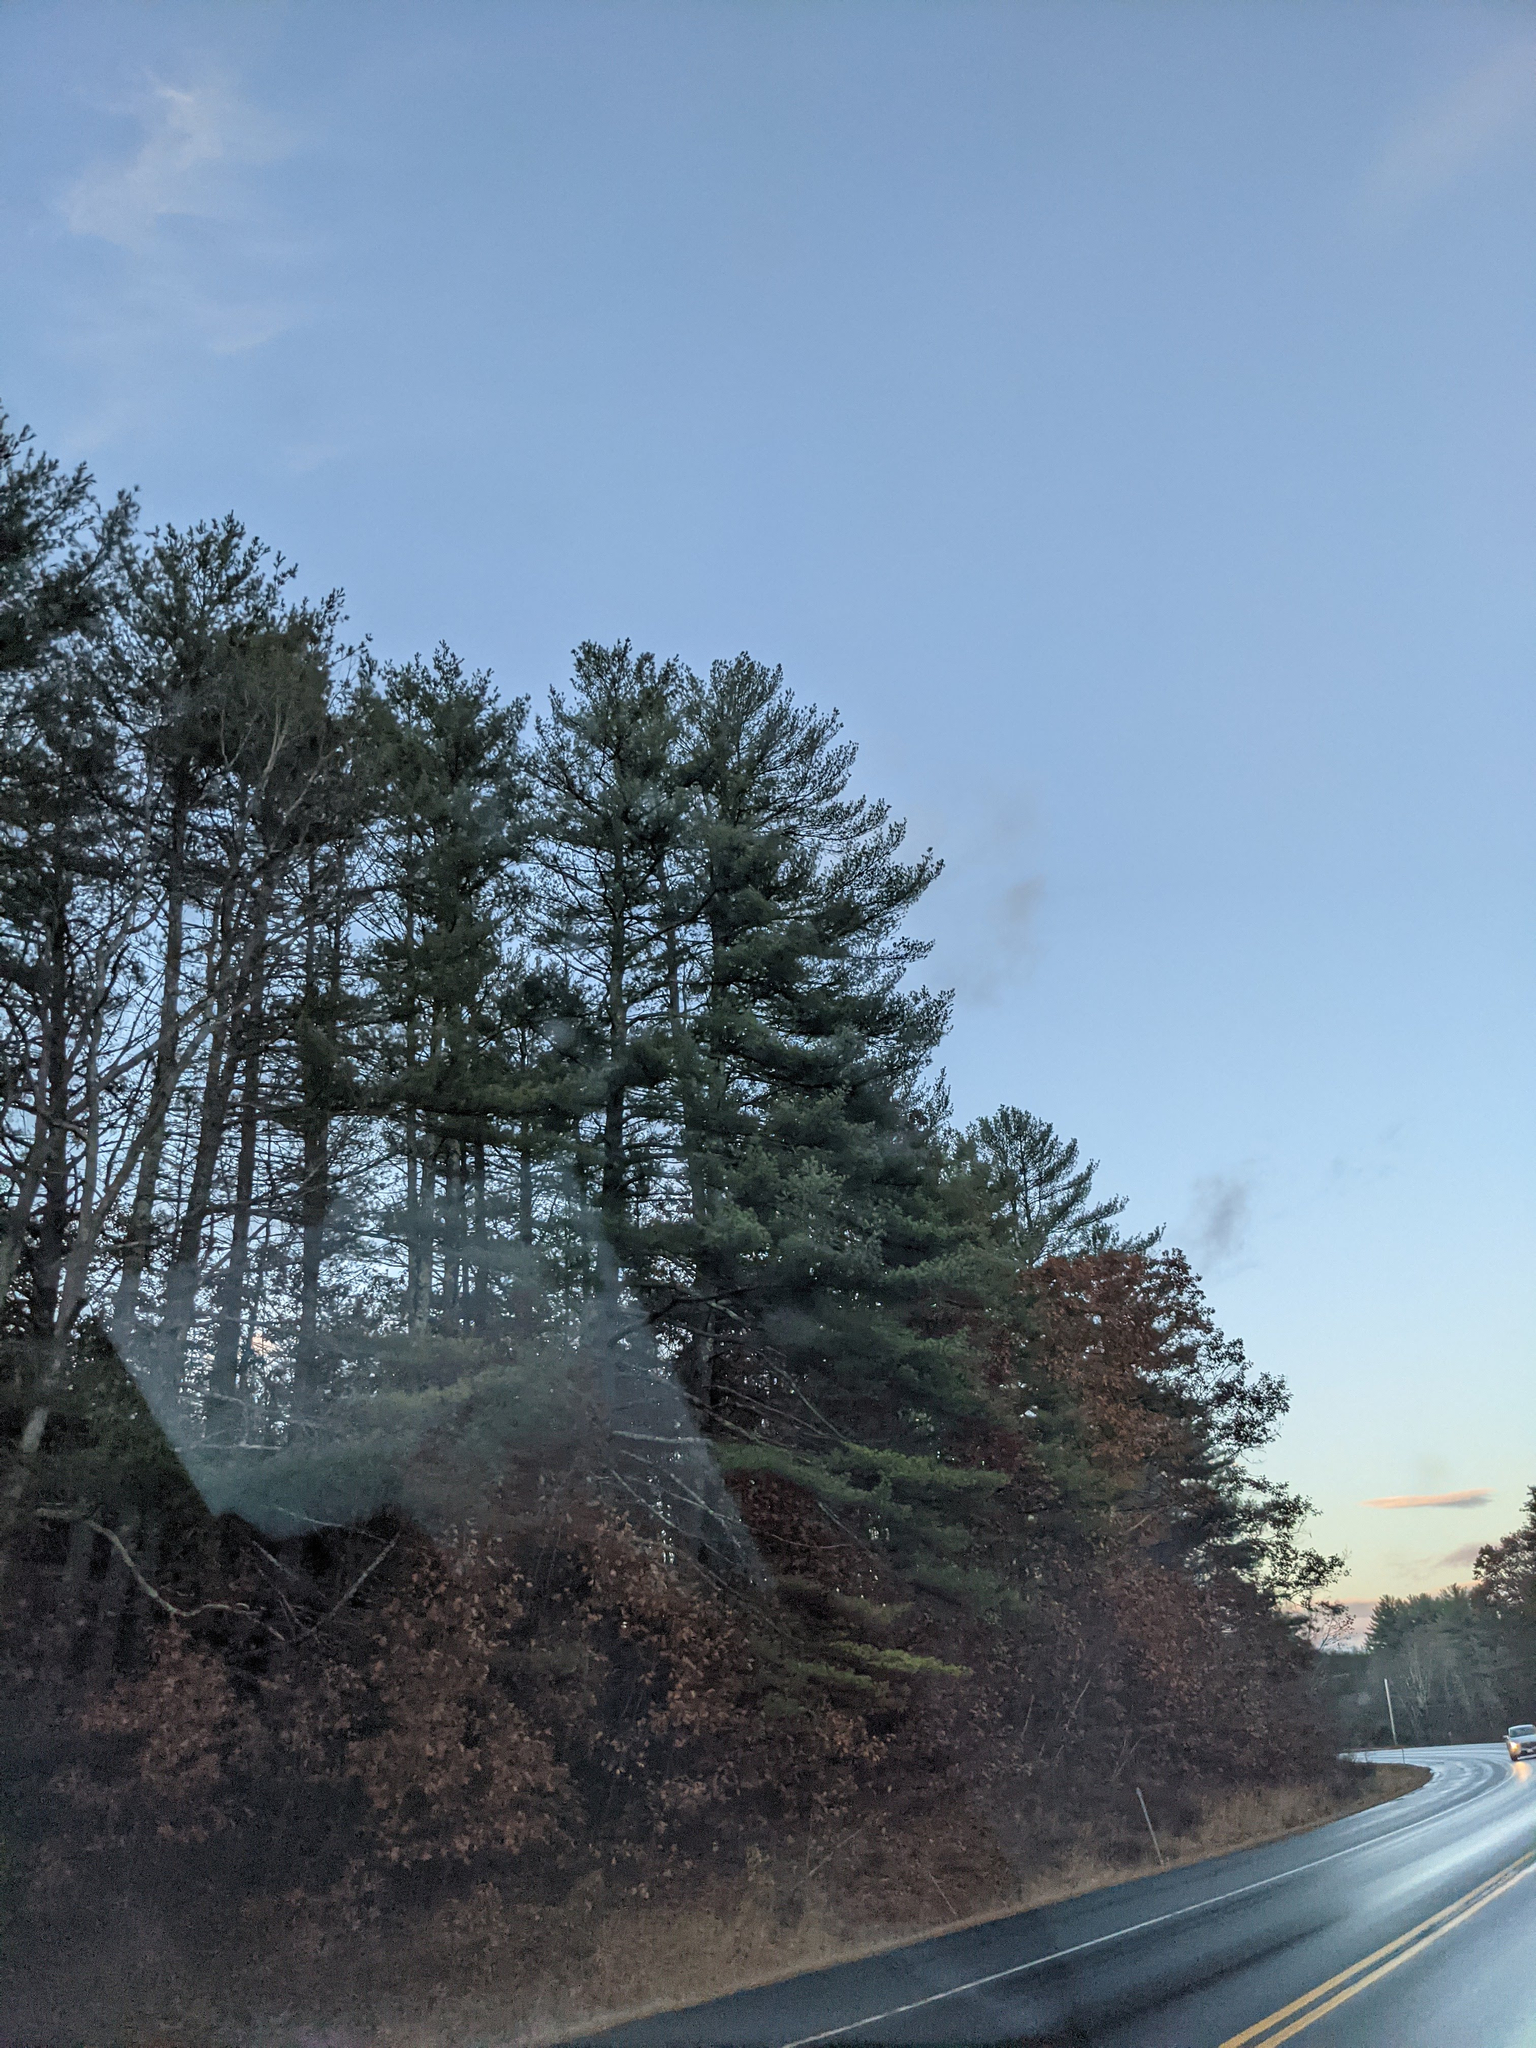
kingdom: Plantae
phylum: Tracheophyta
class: Pinopsida
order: Pinales
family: Pinaceae
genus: Pinus
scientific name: Pinus strobus
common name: Weymouth pine
